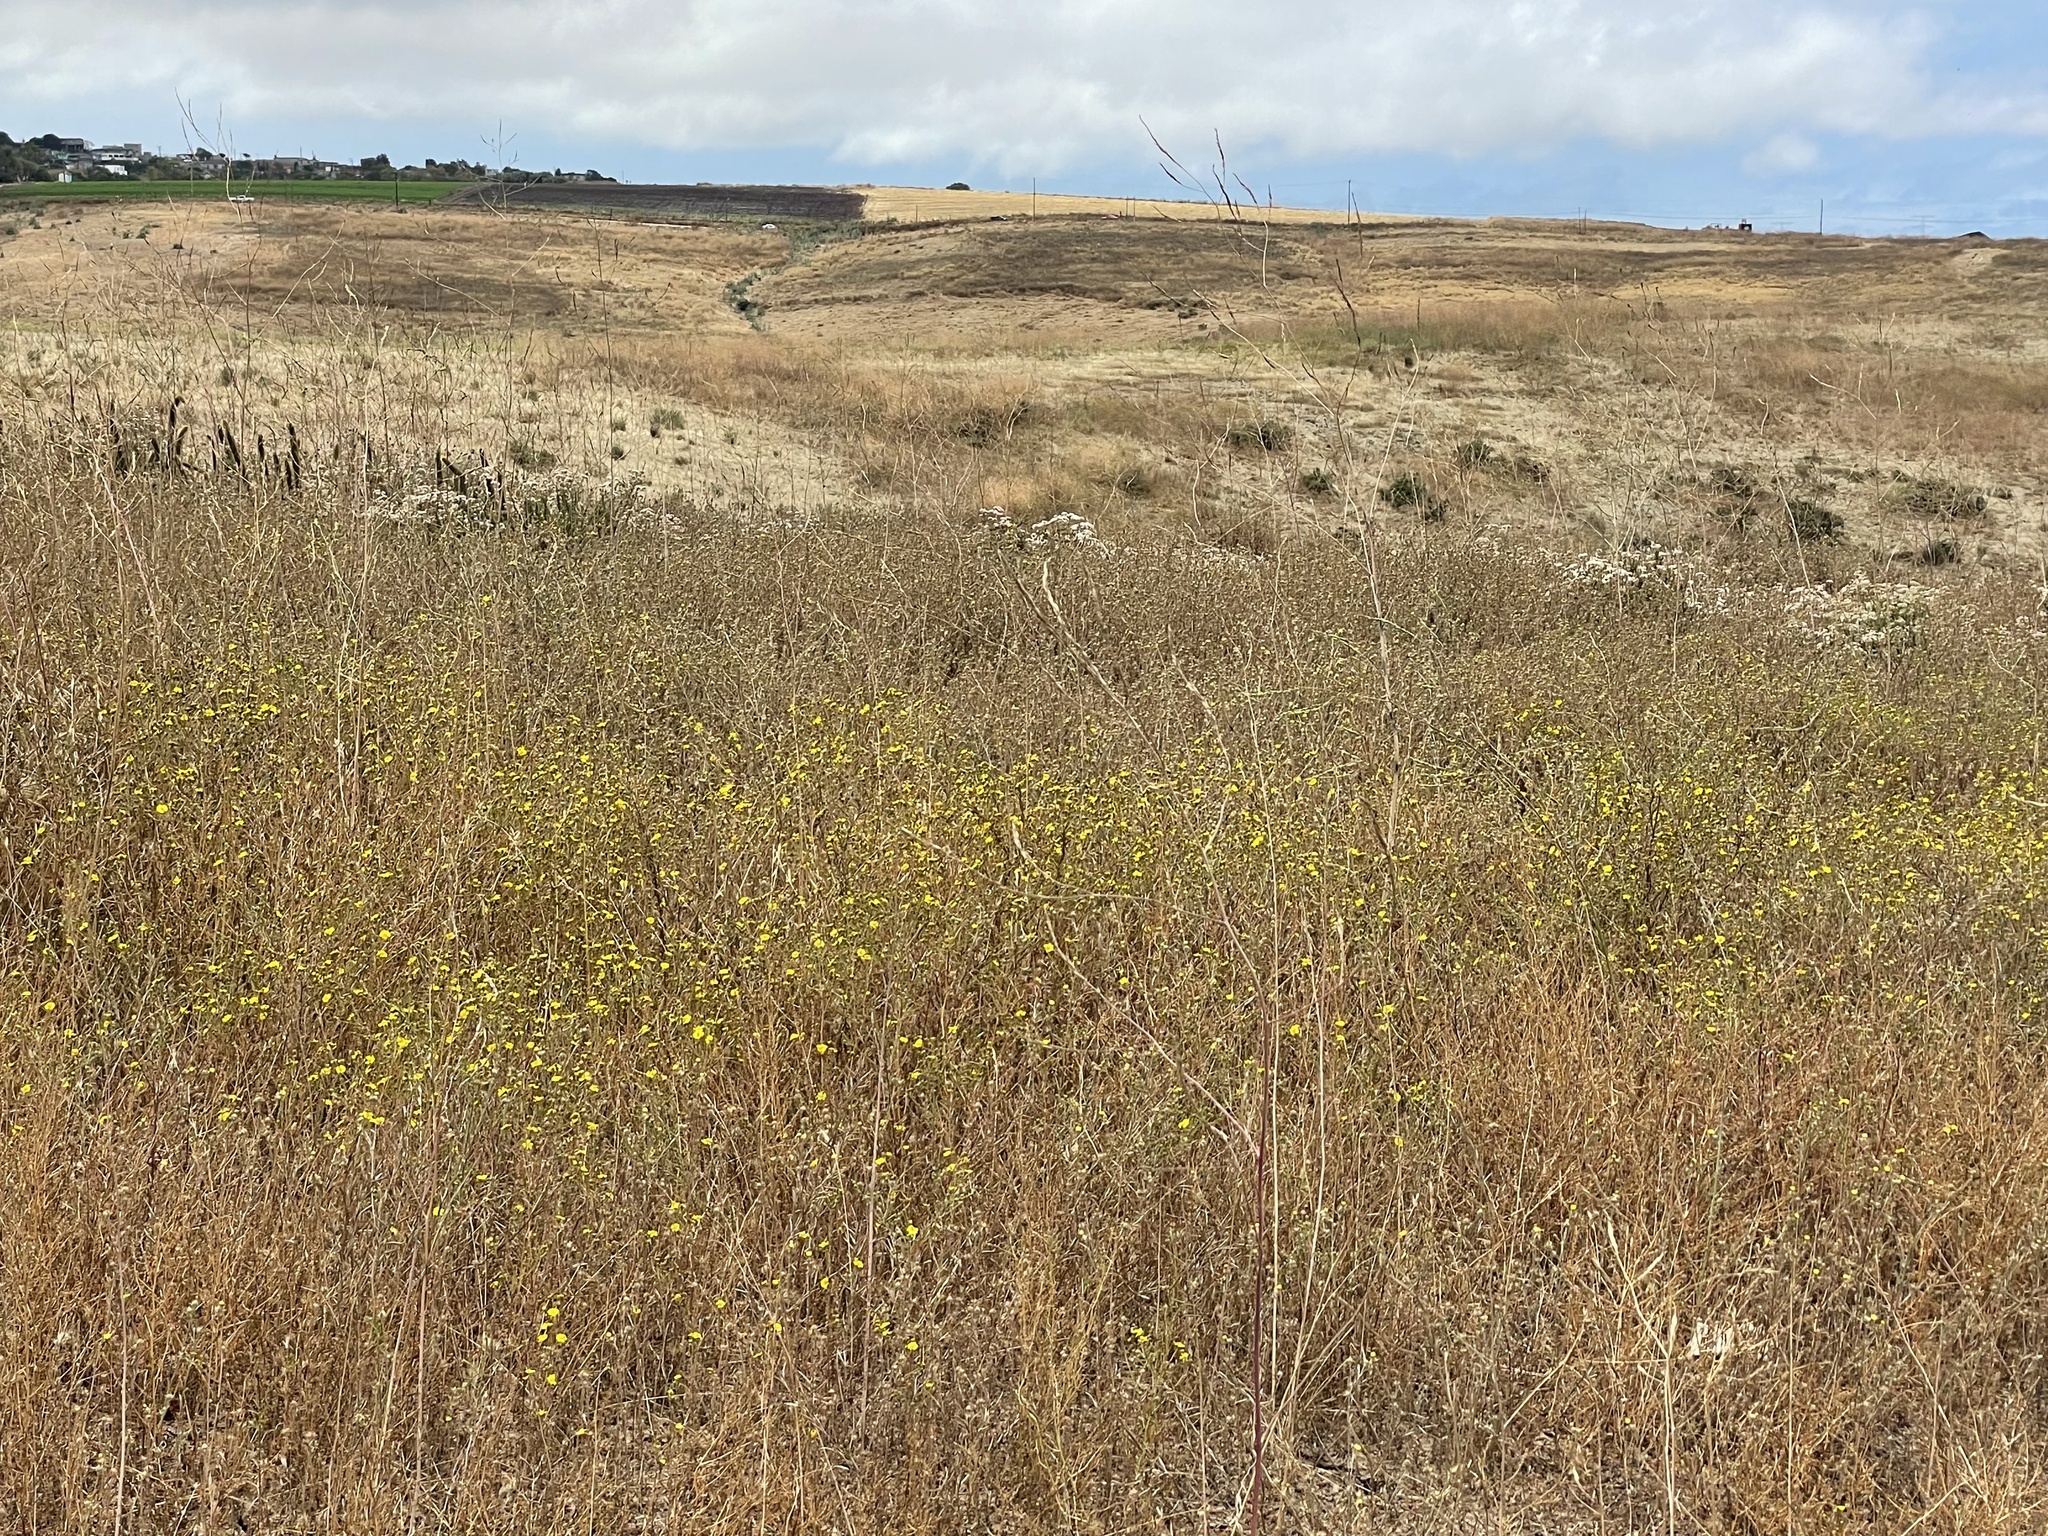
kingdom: Plantae
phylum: Tracheophyta
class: Magnoliopsida
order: Asterales
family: Asteraceae
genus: Deinandra
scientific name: Deinandra conjugens
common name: Otay tarplant
